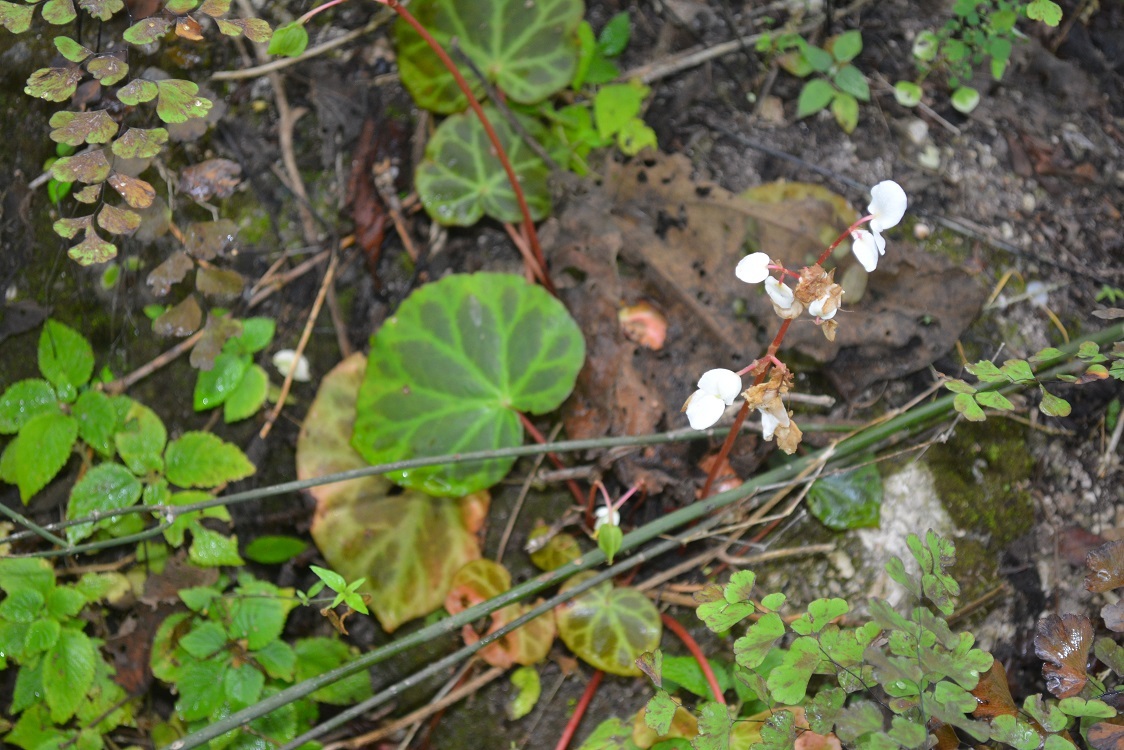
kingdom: Plantae
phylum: Tracheophyta
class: Magnoliopsida
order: Cucurbitales
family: Begoniaceae
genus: Begonia
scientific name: Begonia plebeja
